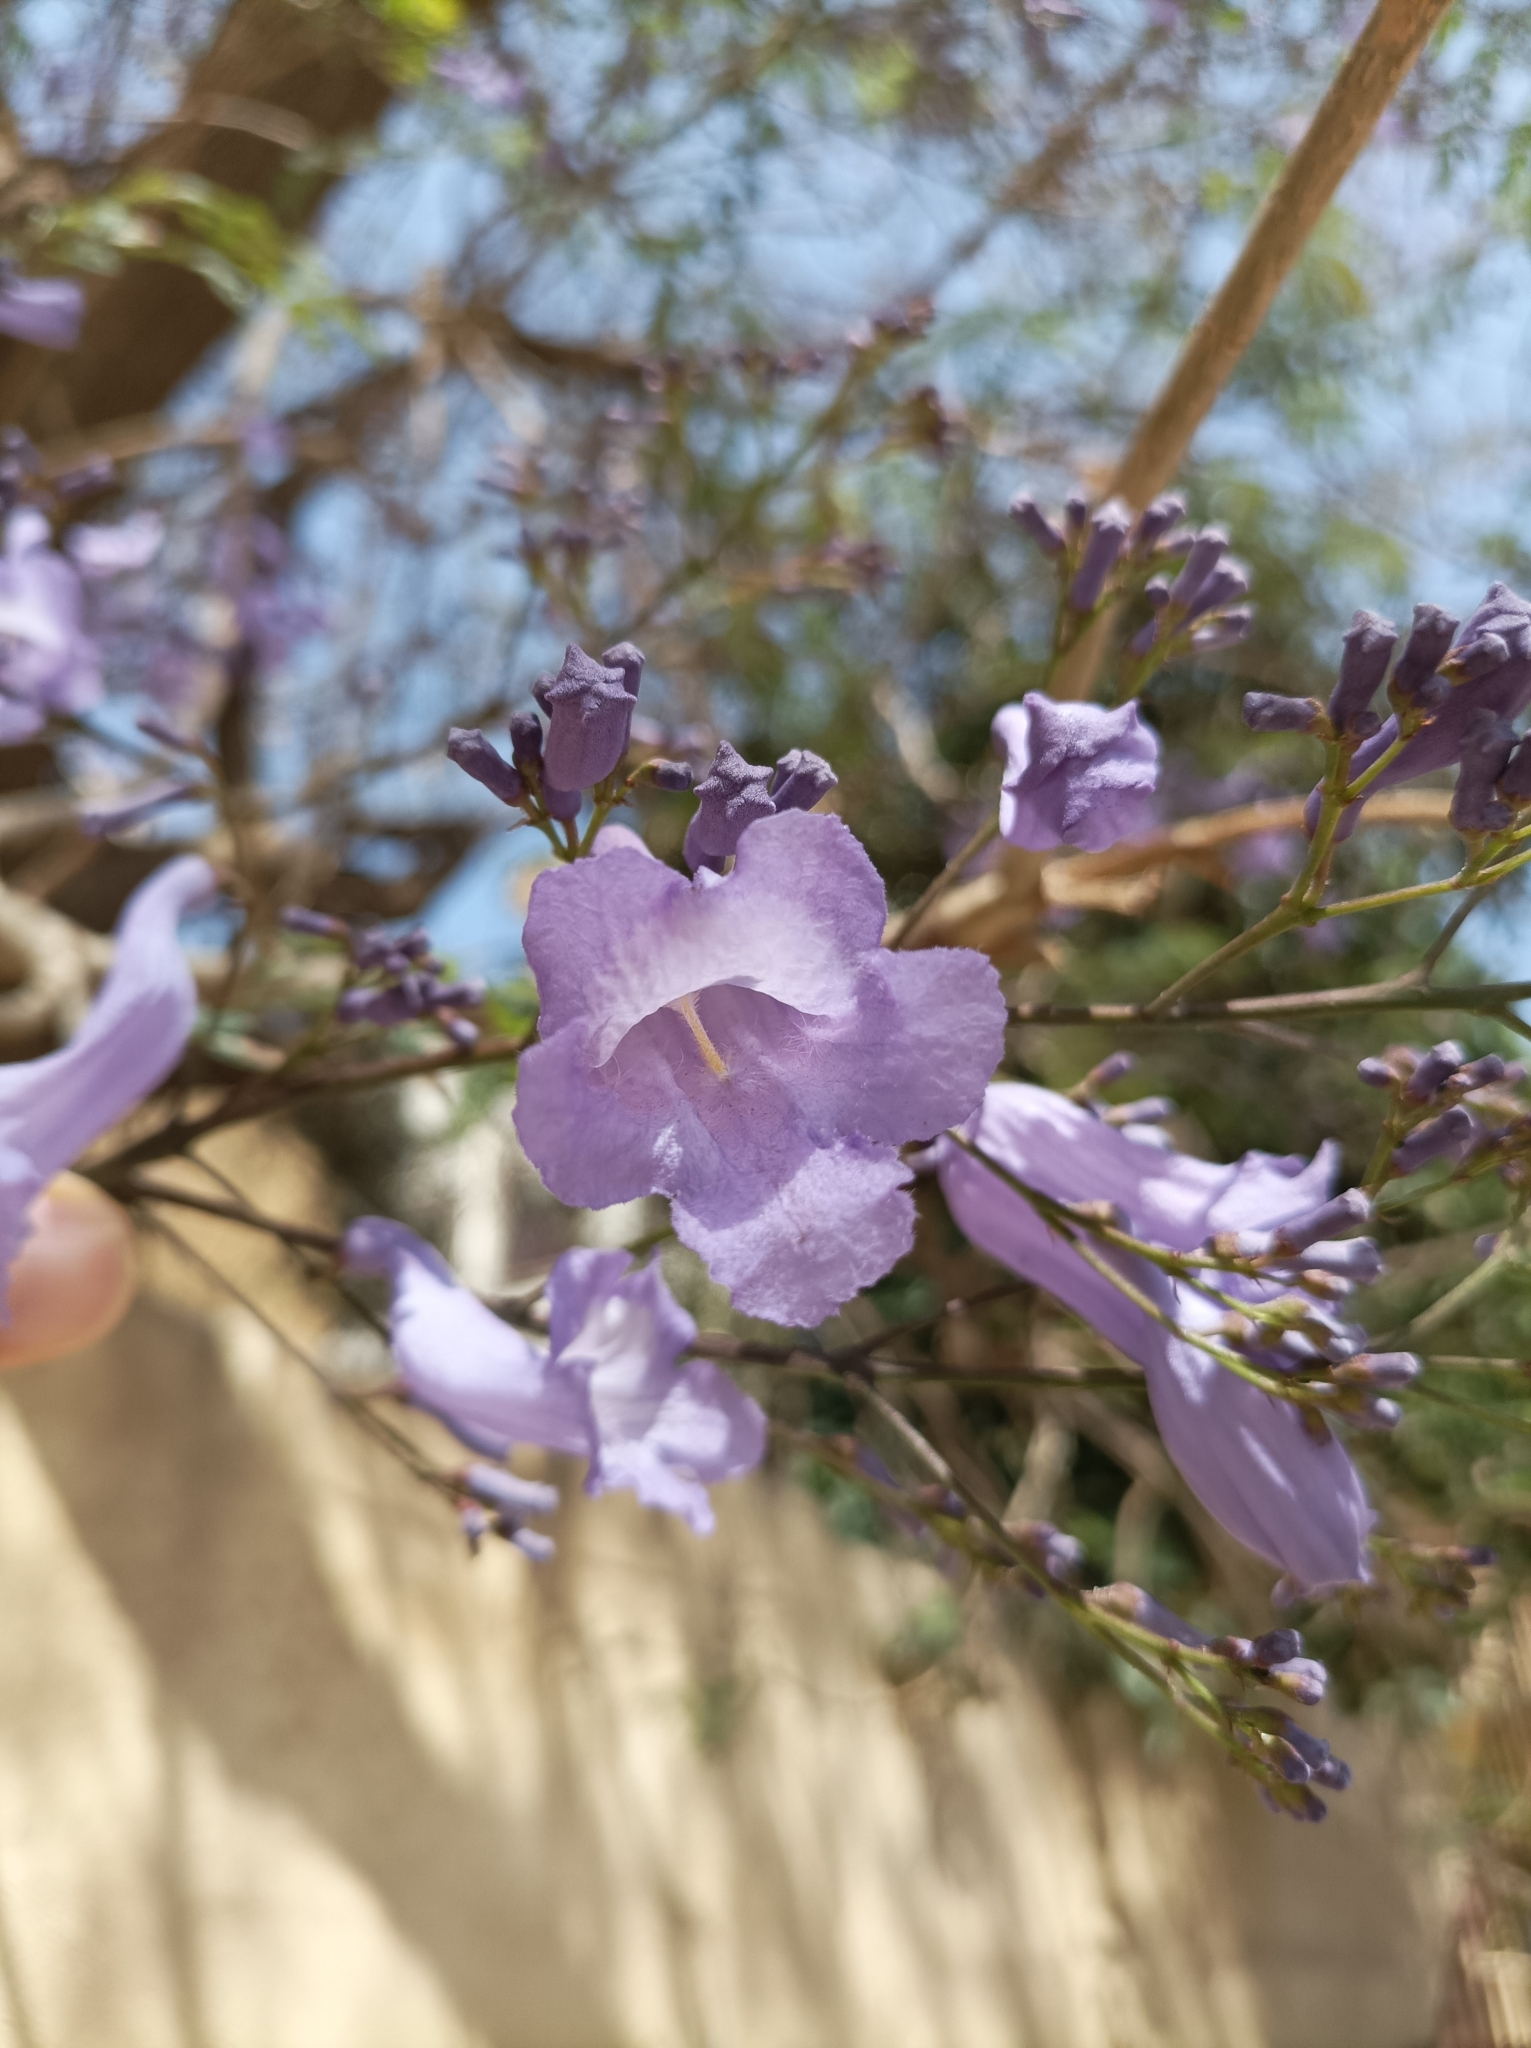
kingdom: Plantae
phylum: Tracheophyta
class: Magnoliopsida
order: Lamiales
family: Bignoniaceae
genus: Jacaranda
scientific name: Jacaranda mimosifolia
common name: Black poui
